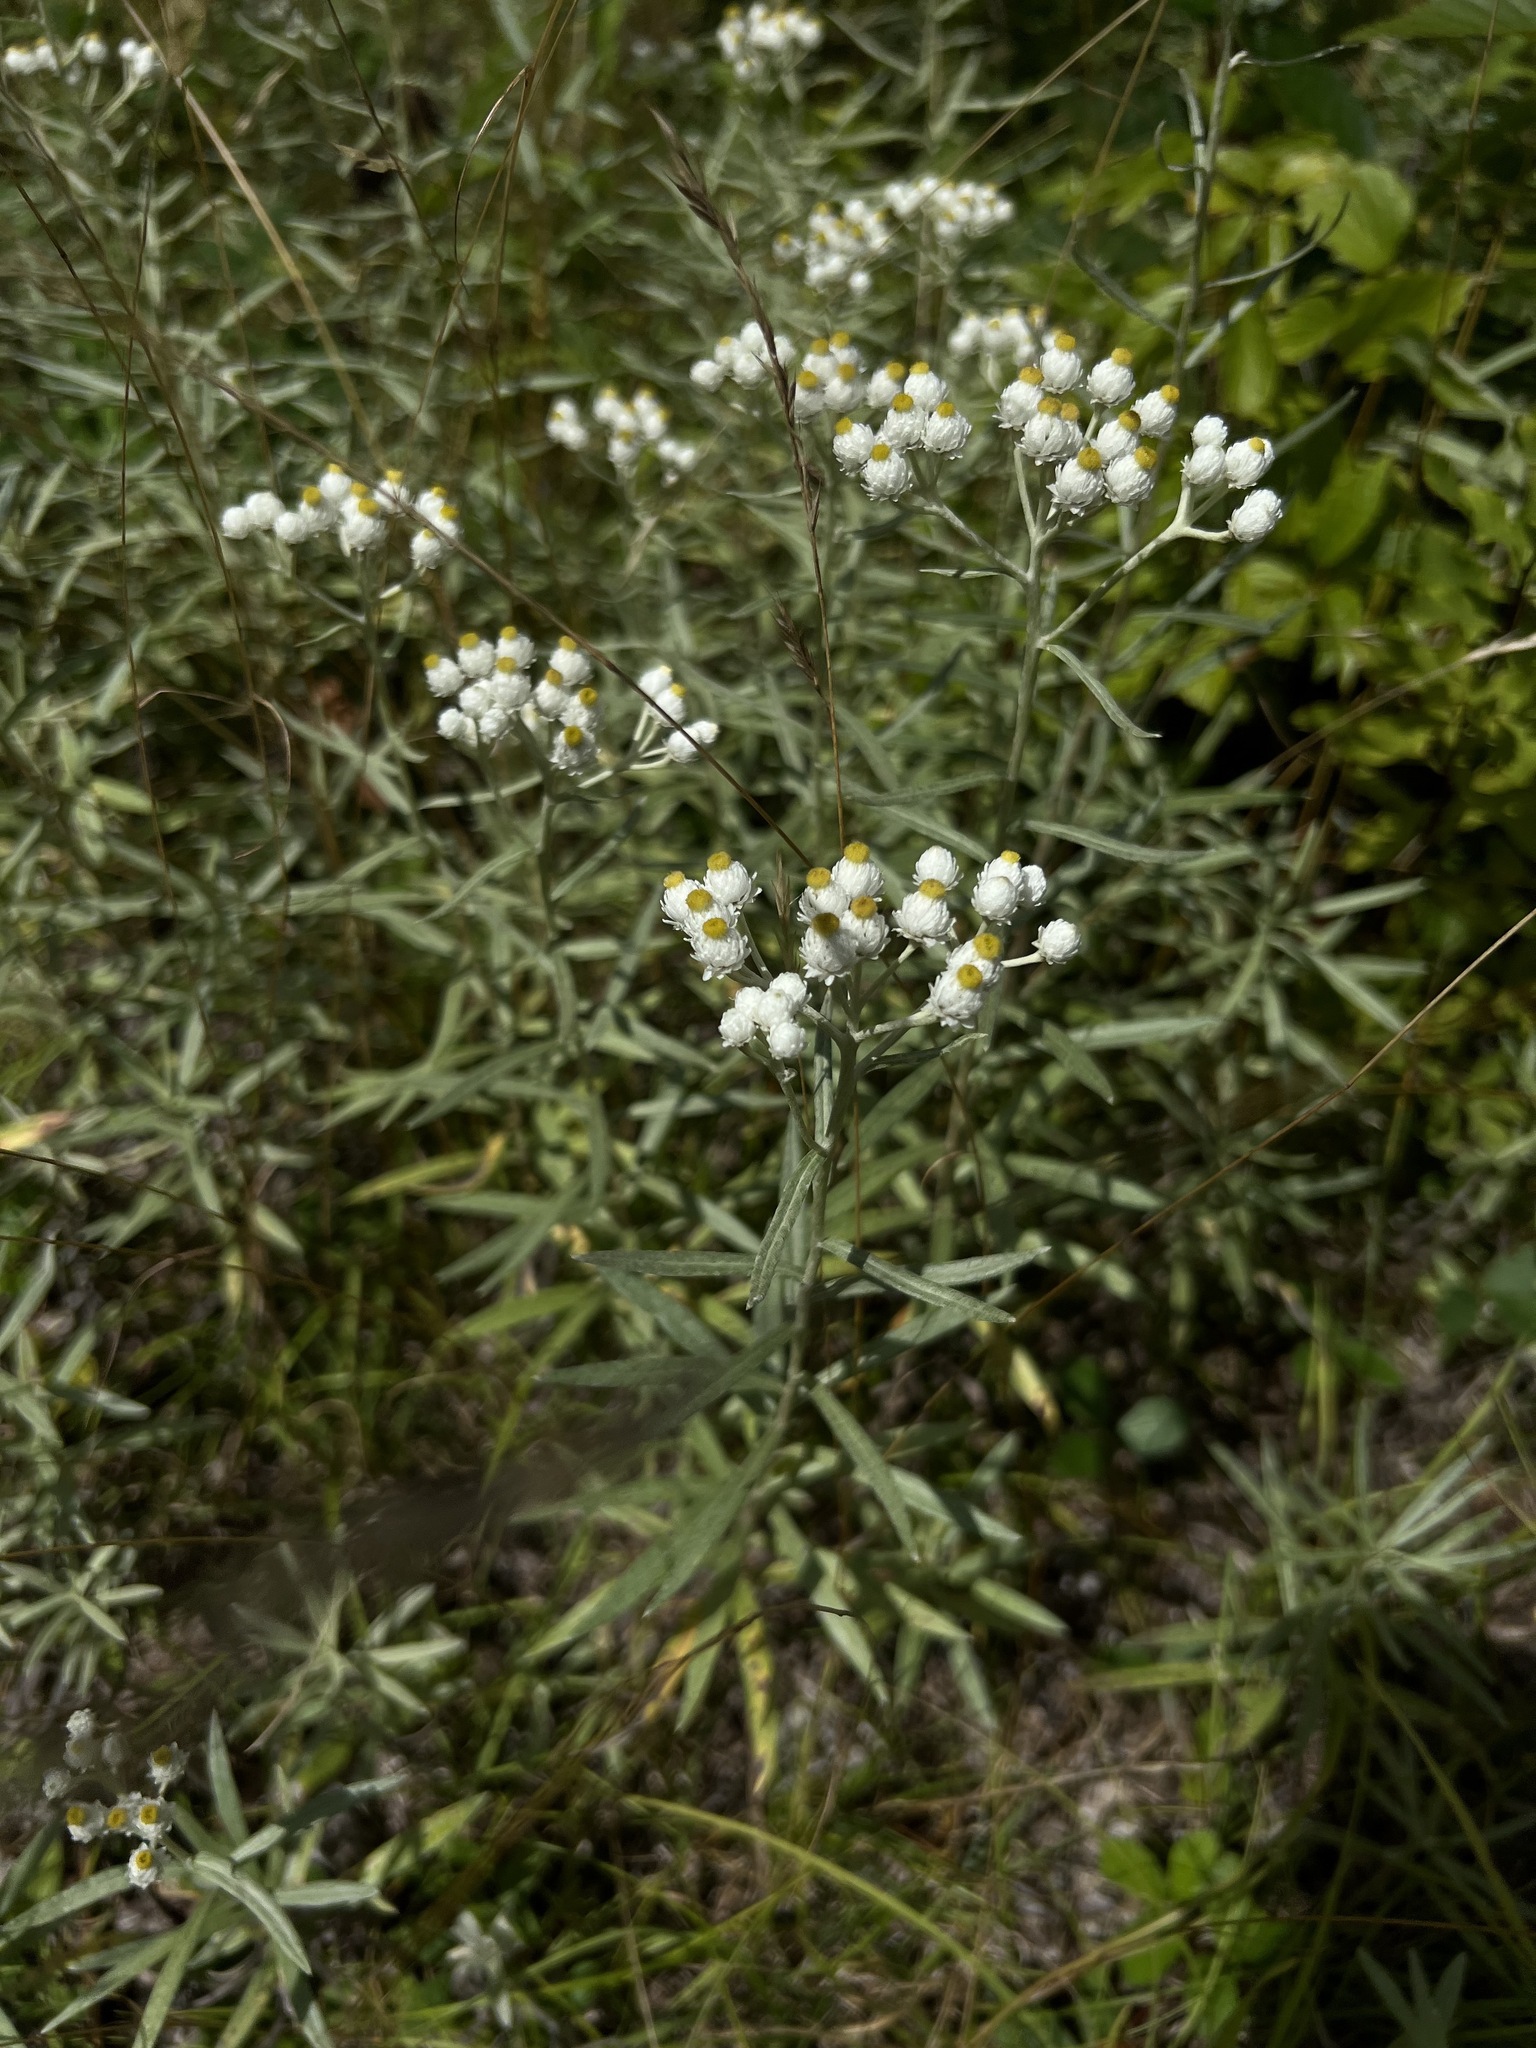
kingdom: Plantae
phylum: Tracheophyta
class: Magnoliopsida
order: Asterales
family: Asteraceae
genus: Anaphalis
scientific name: Anaphalis margaritacea
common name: Pearly everlasting
